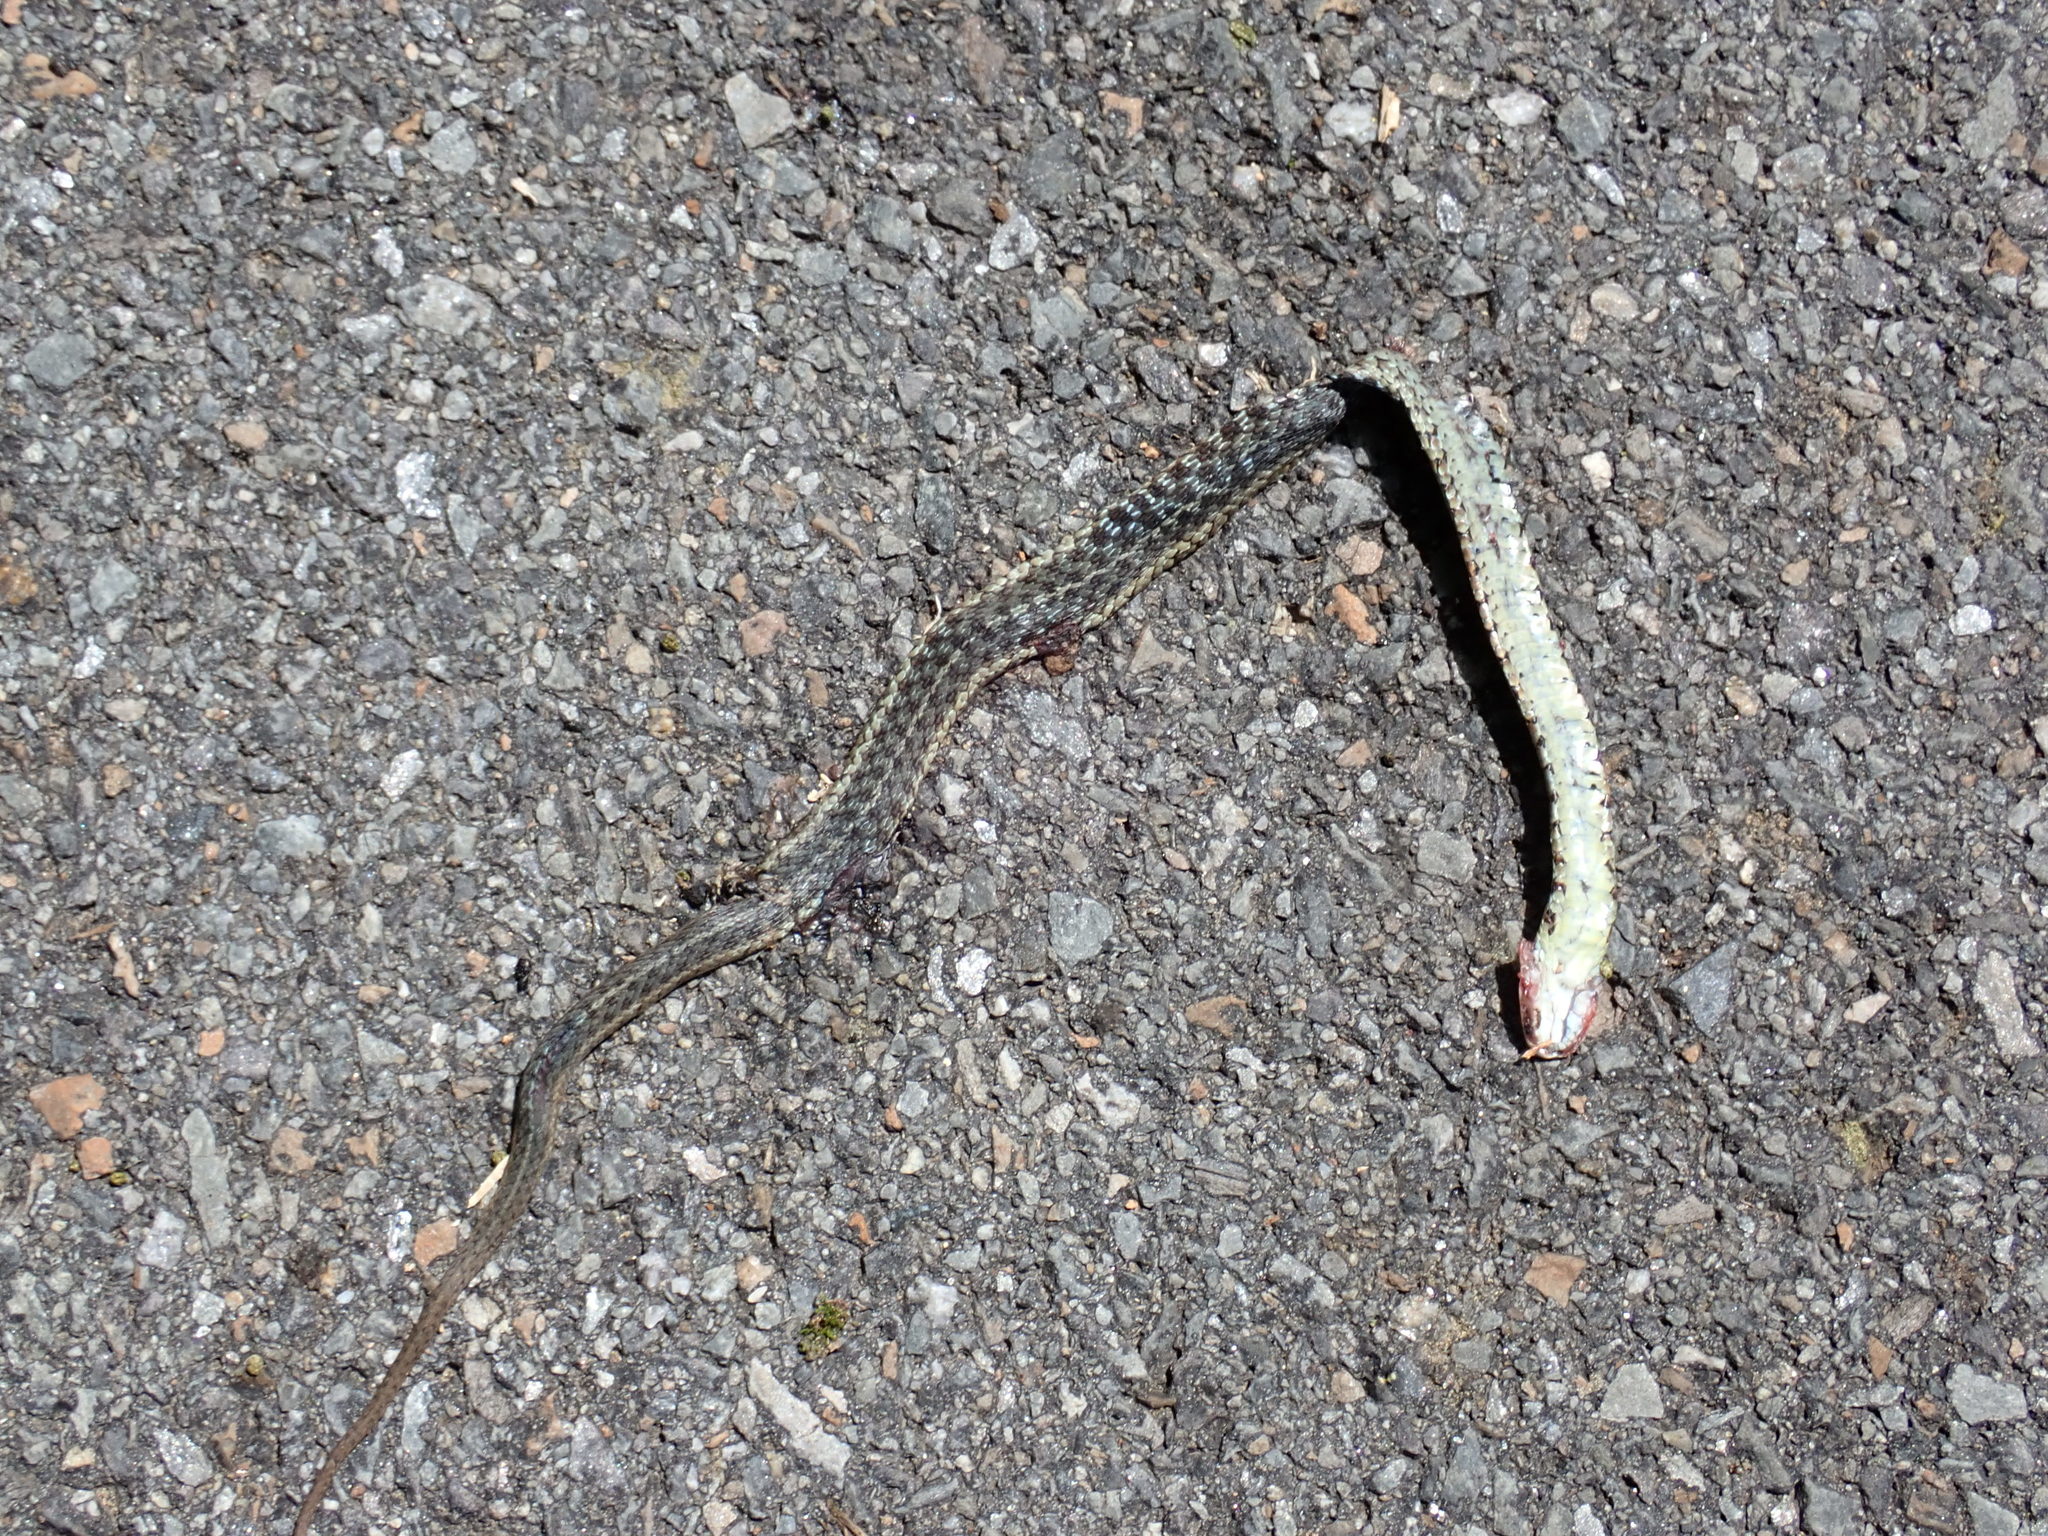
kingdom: Animalia
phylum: Chordata
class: Squamata
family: Colubridae
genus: Thamnophis
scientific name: Thamnophis sirtalis
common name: Common garter snake
